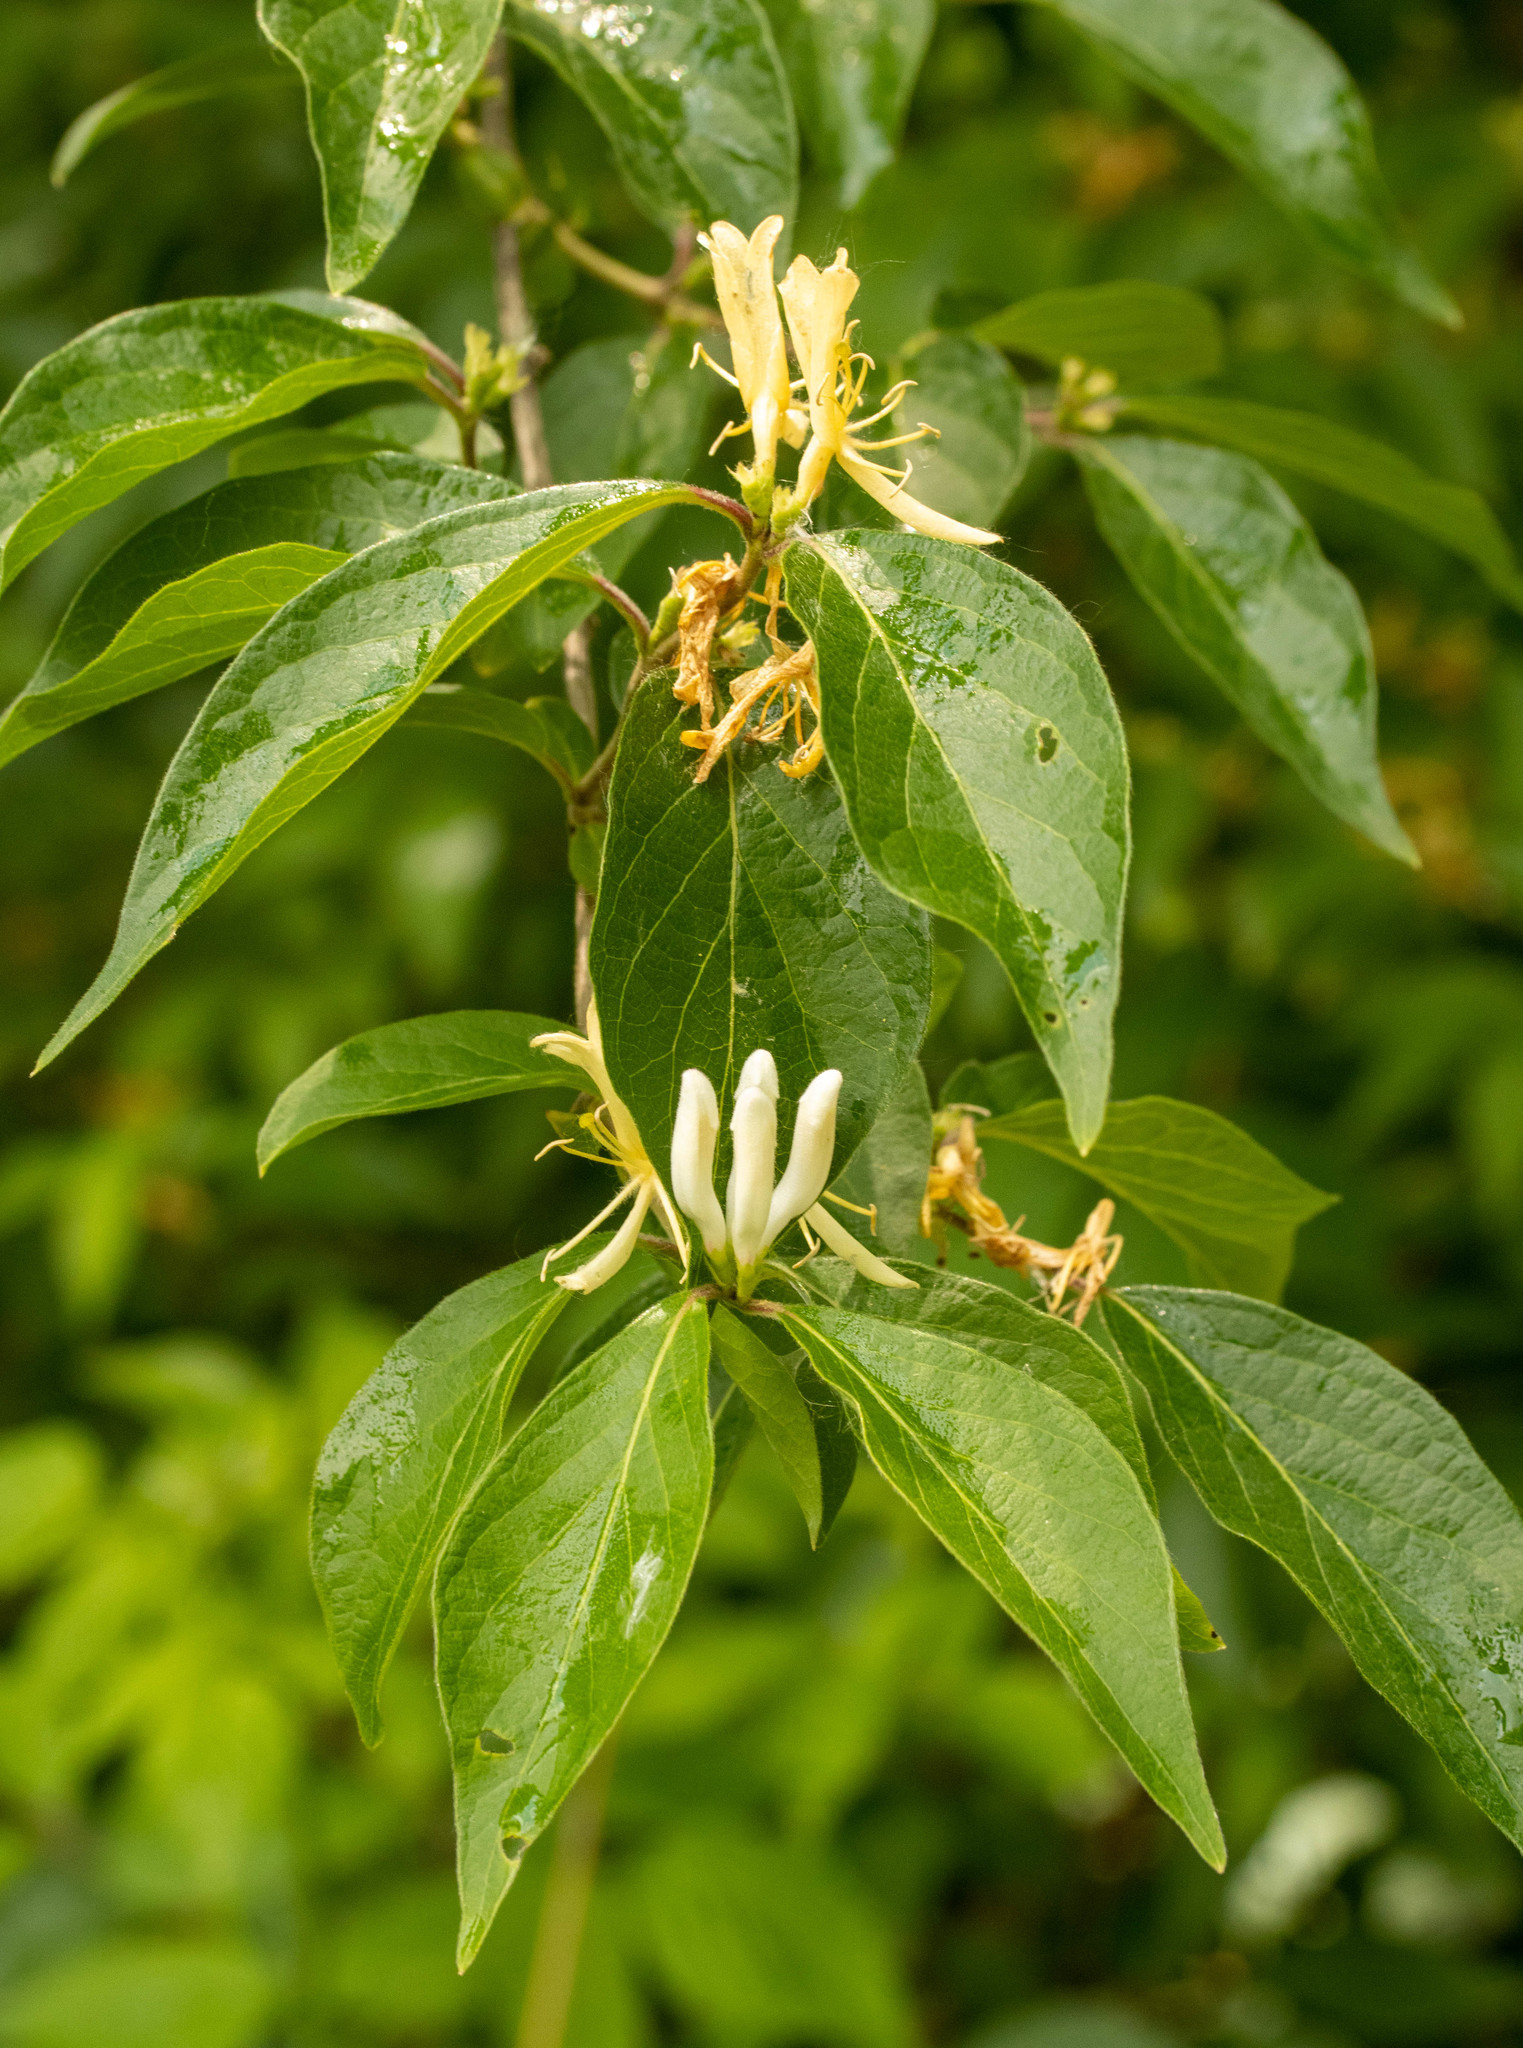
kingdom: Plantae
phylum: Tracheophyta
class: Magnoliopsida
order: Dipsacales
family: Caprifoliaceae
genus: Lonicera
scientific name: Lonicera maackii
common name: Amur honeysuckle
